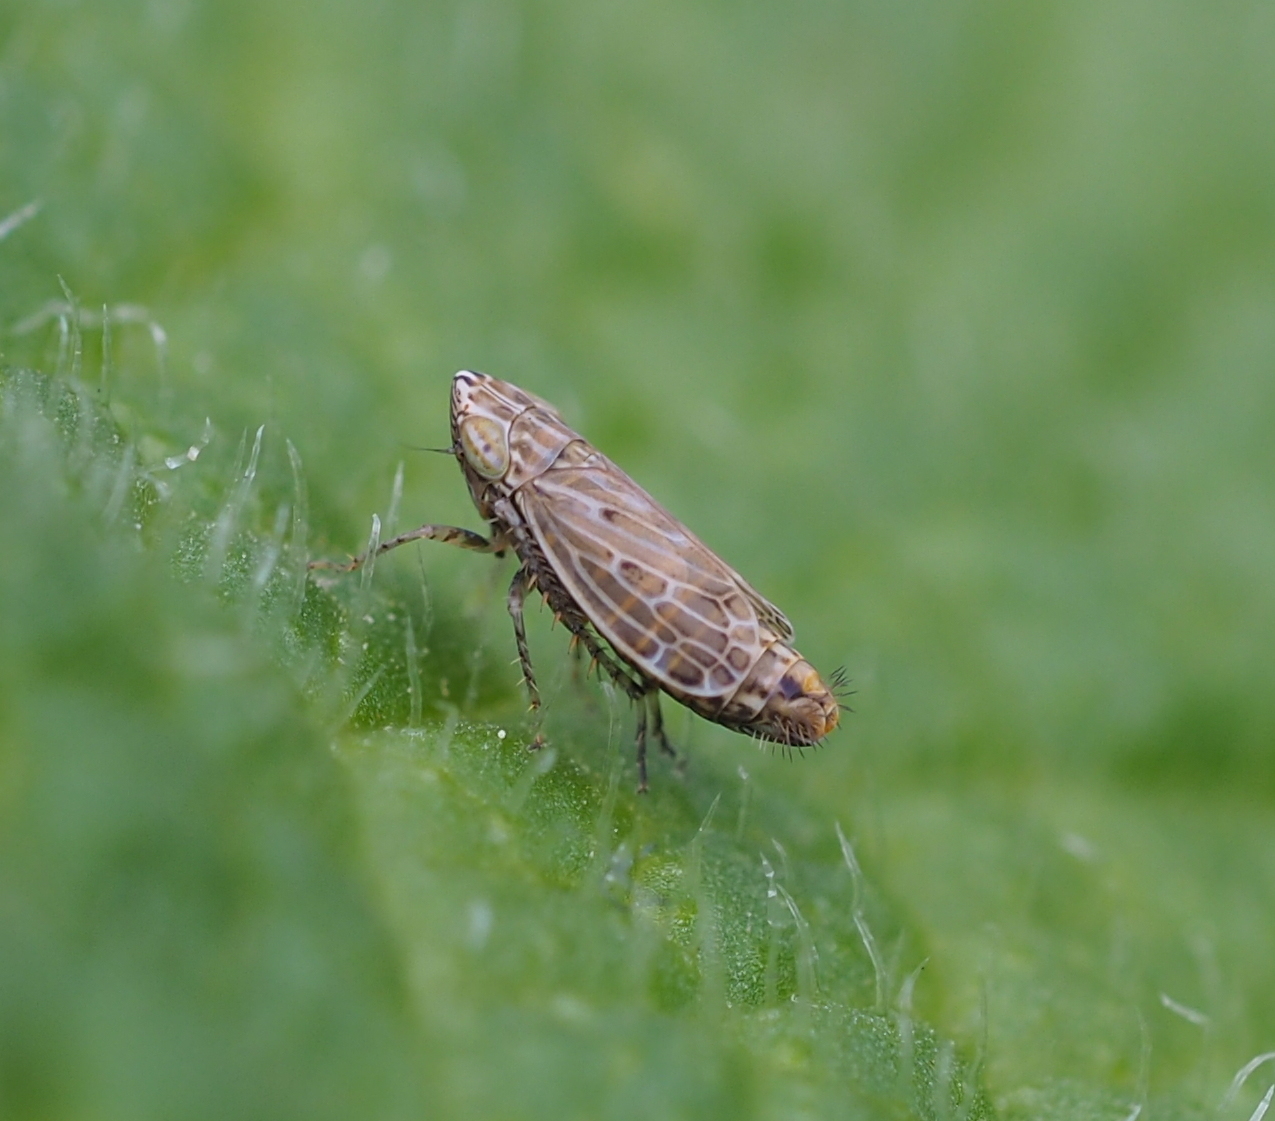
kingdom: Animalia
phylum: Arthropoda
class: Insecta
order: Hemiptera
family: Cicadellidae
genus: Turrutus
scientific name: Turrutus socialis
